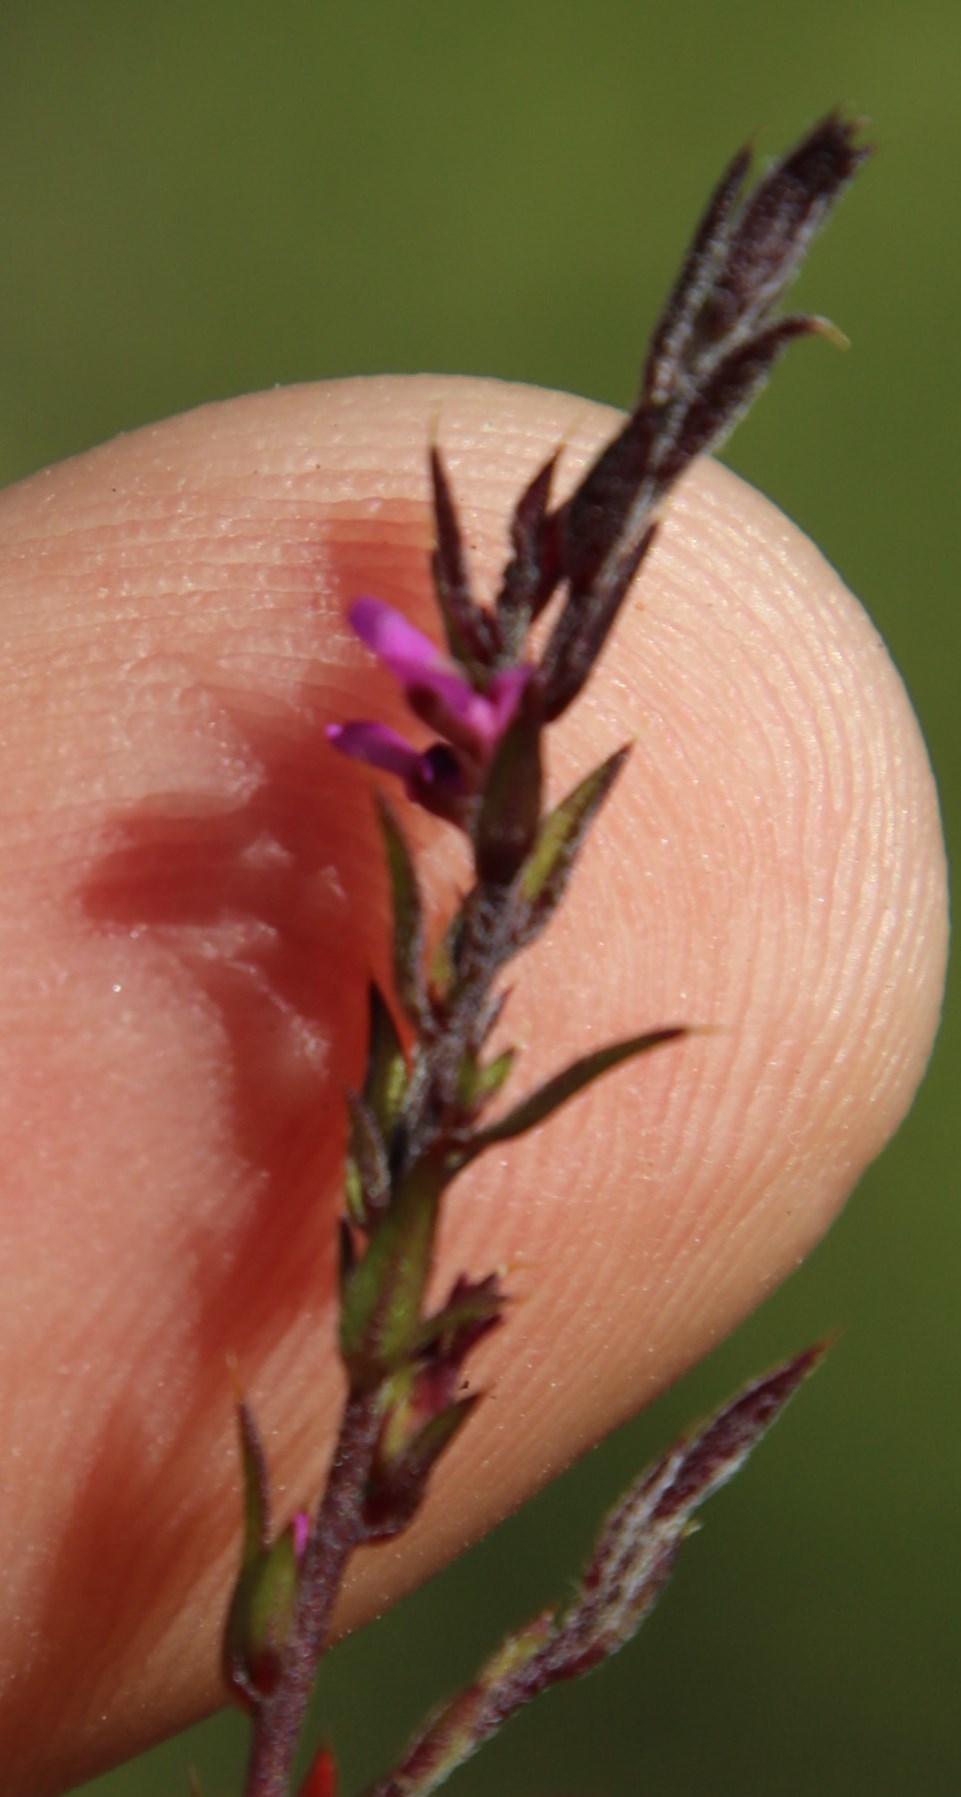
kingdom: Plantae
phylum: Tracheophyta
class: Magnoliopsida
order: Fabales
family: Polygalaceae
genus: Muraltia
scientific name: Muraltia stipulacea
